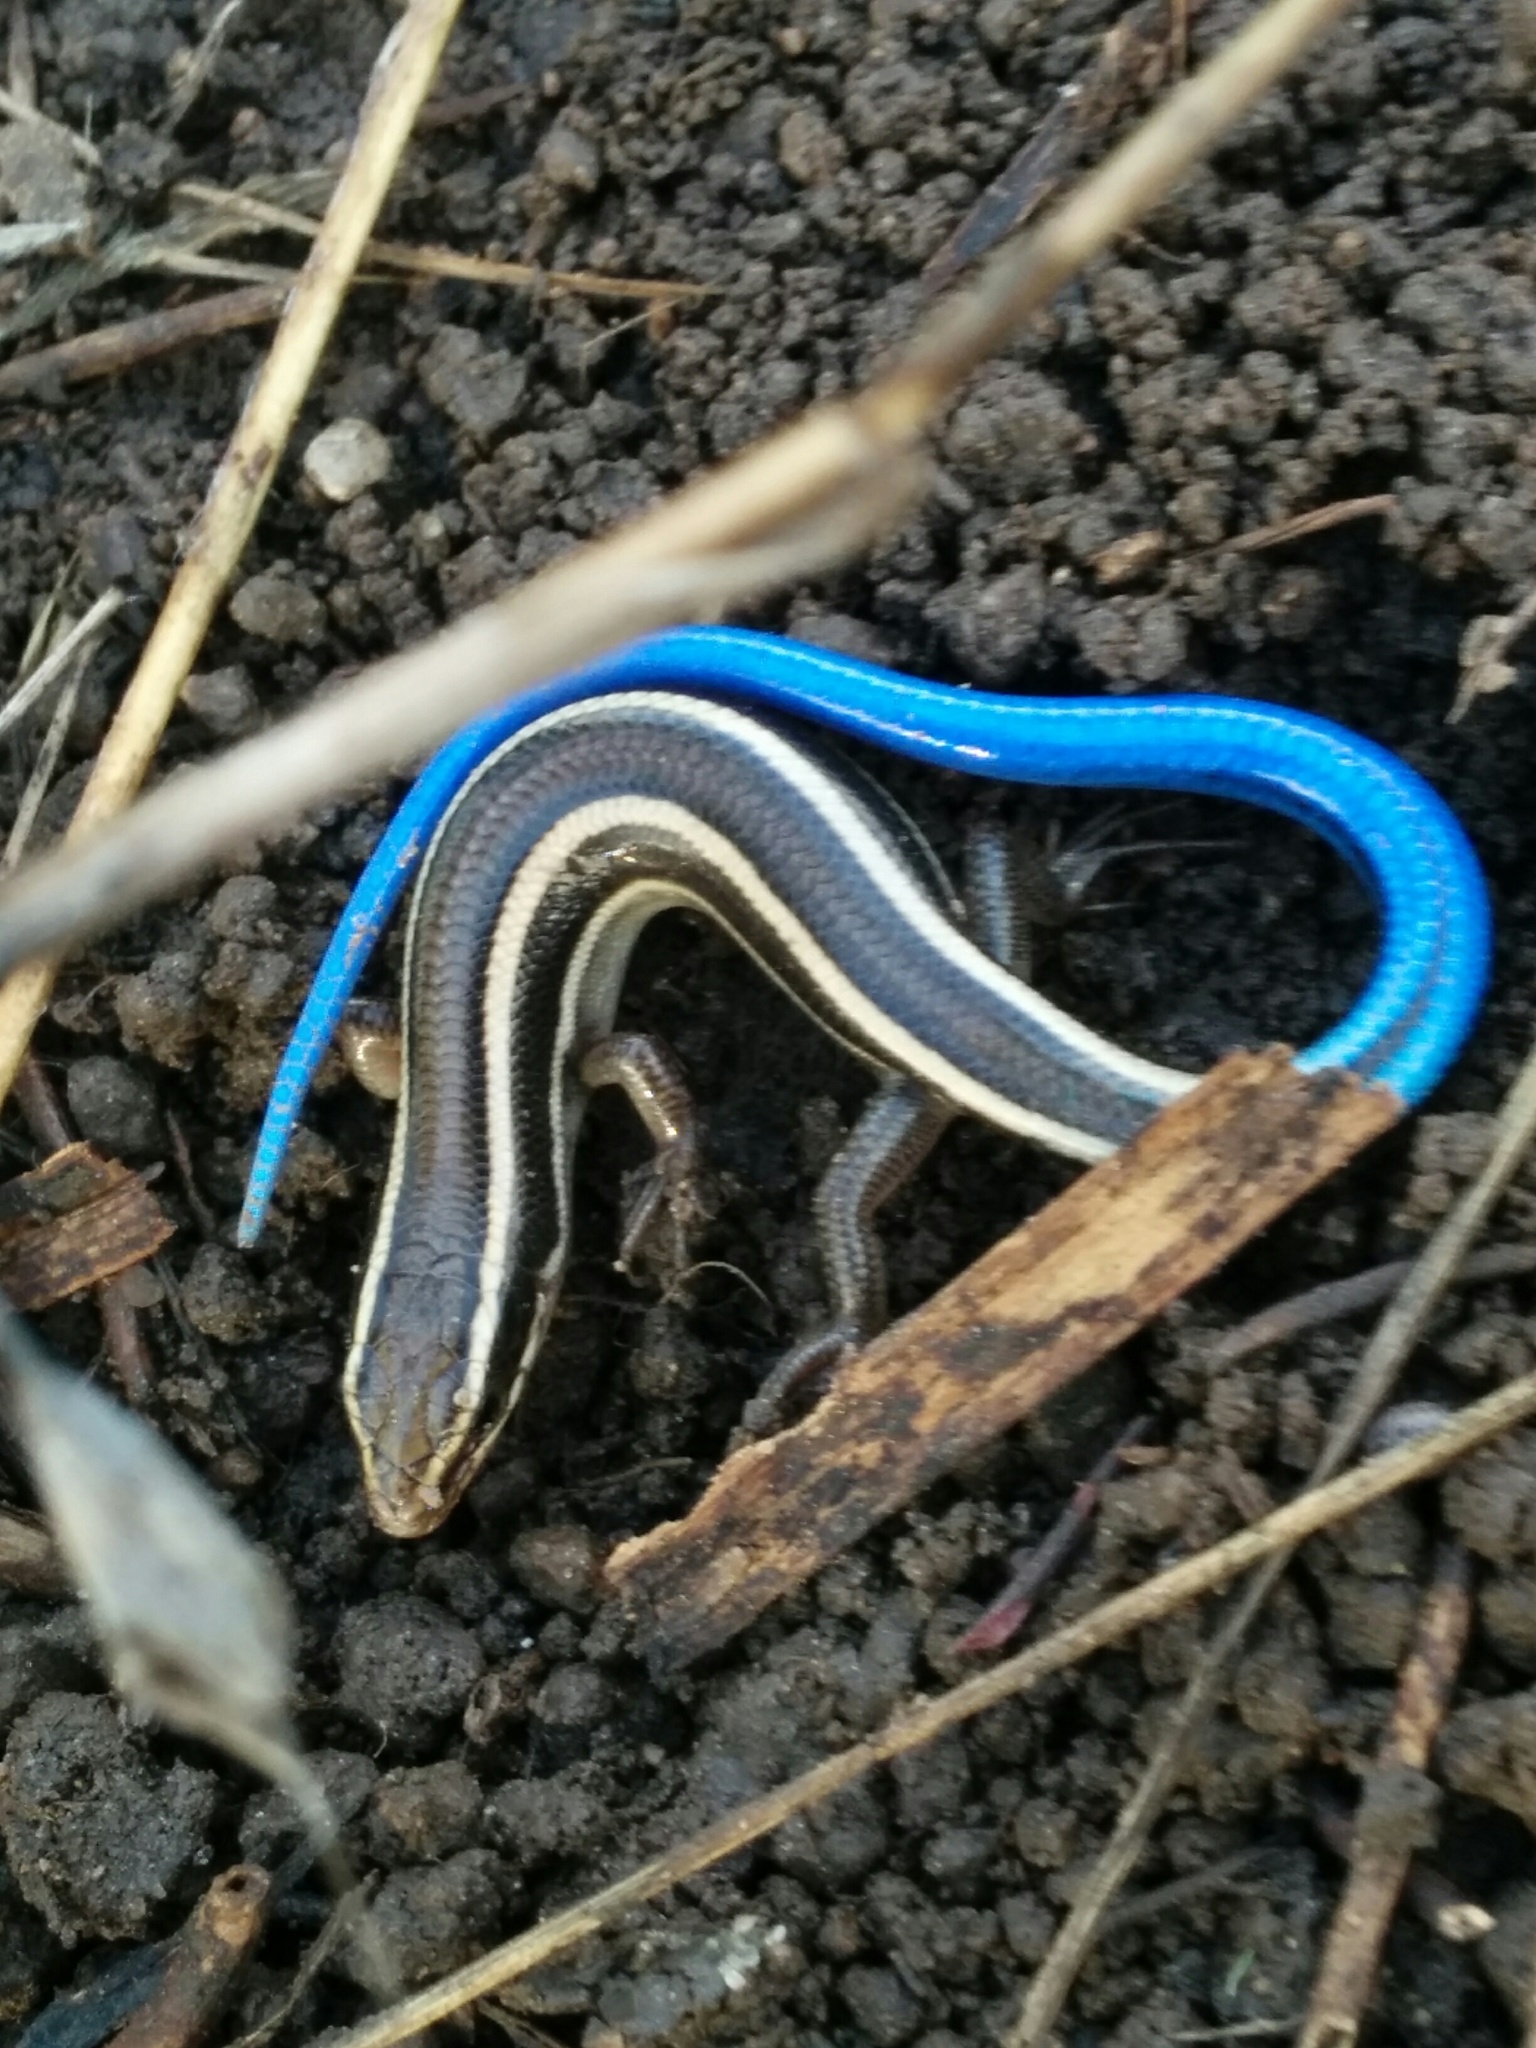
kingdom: Animalia
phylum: Chordata
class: Squamata
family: Scincidae
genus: Plestiodon
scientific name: Plestiodon skiltonianus
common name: Coronado island skink [interparietalis]
